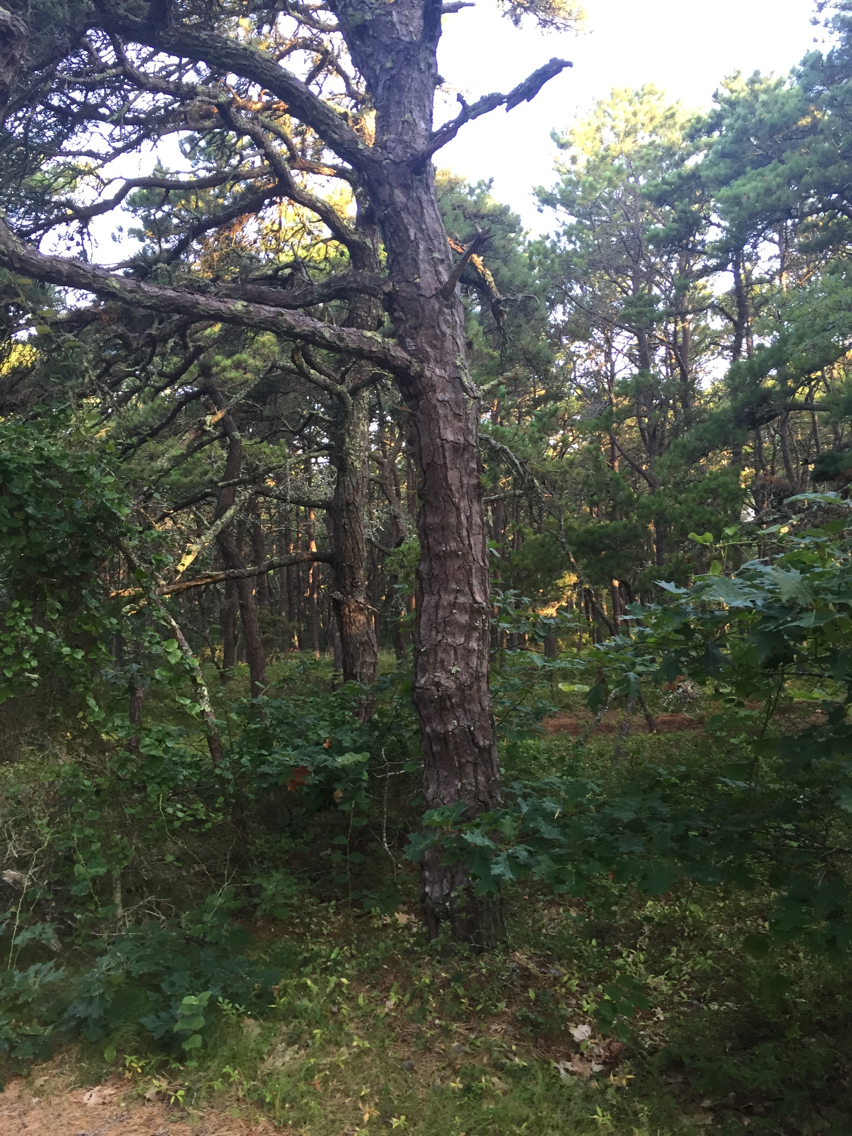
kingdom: Plantae
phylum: Tracheophyta
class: Pinopsida
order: Pinales
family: Pinaceae
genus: Pinus
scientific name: Pinus rigida
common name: Pitch pine
